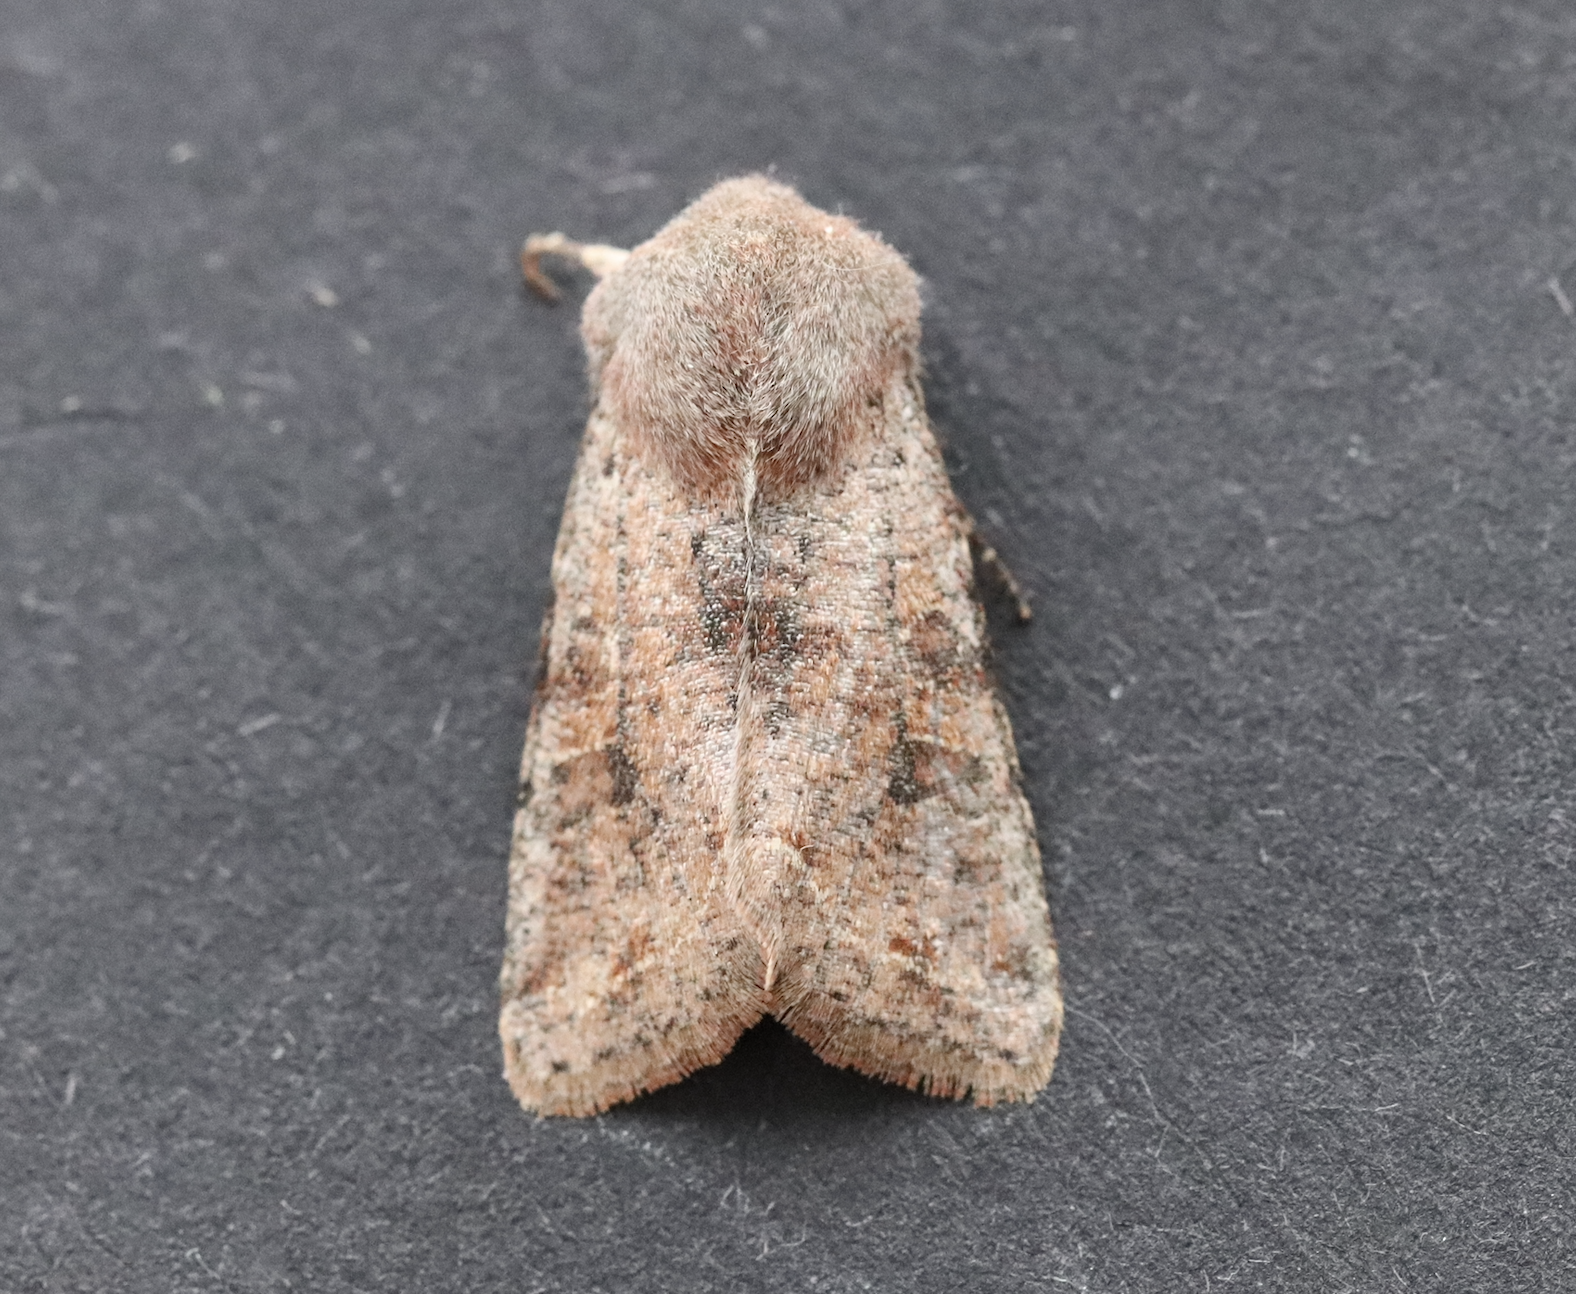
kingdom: Animalia
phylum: Arthropoda
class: Insecta
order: Lepidoptera
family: Noctuidae
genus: Orthosia
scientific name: Orthosia incerta
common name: Clouded drab
